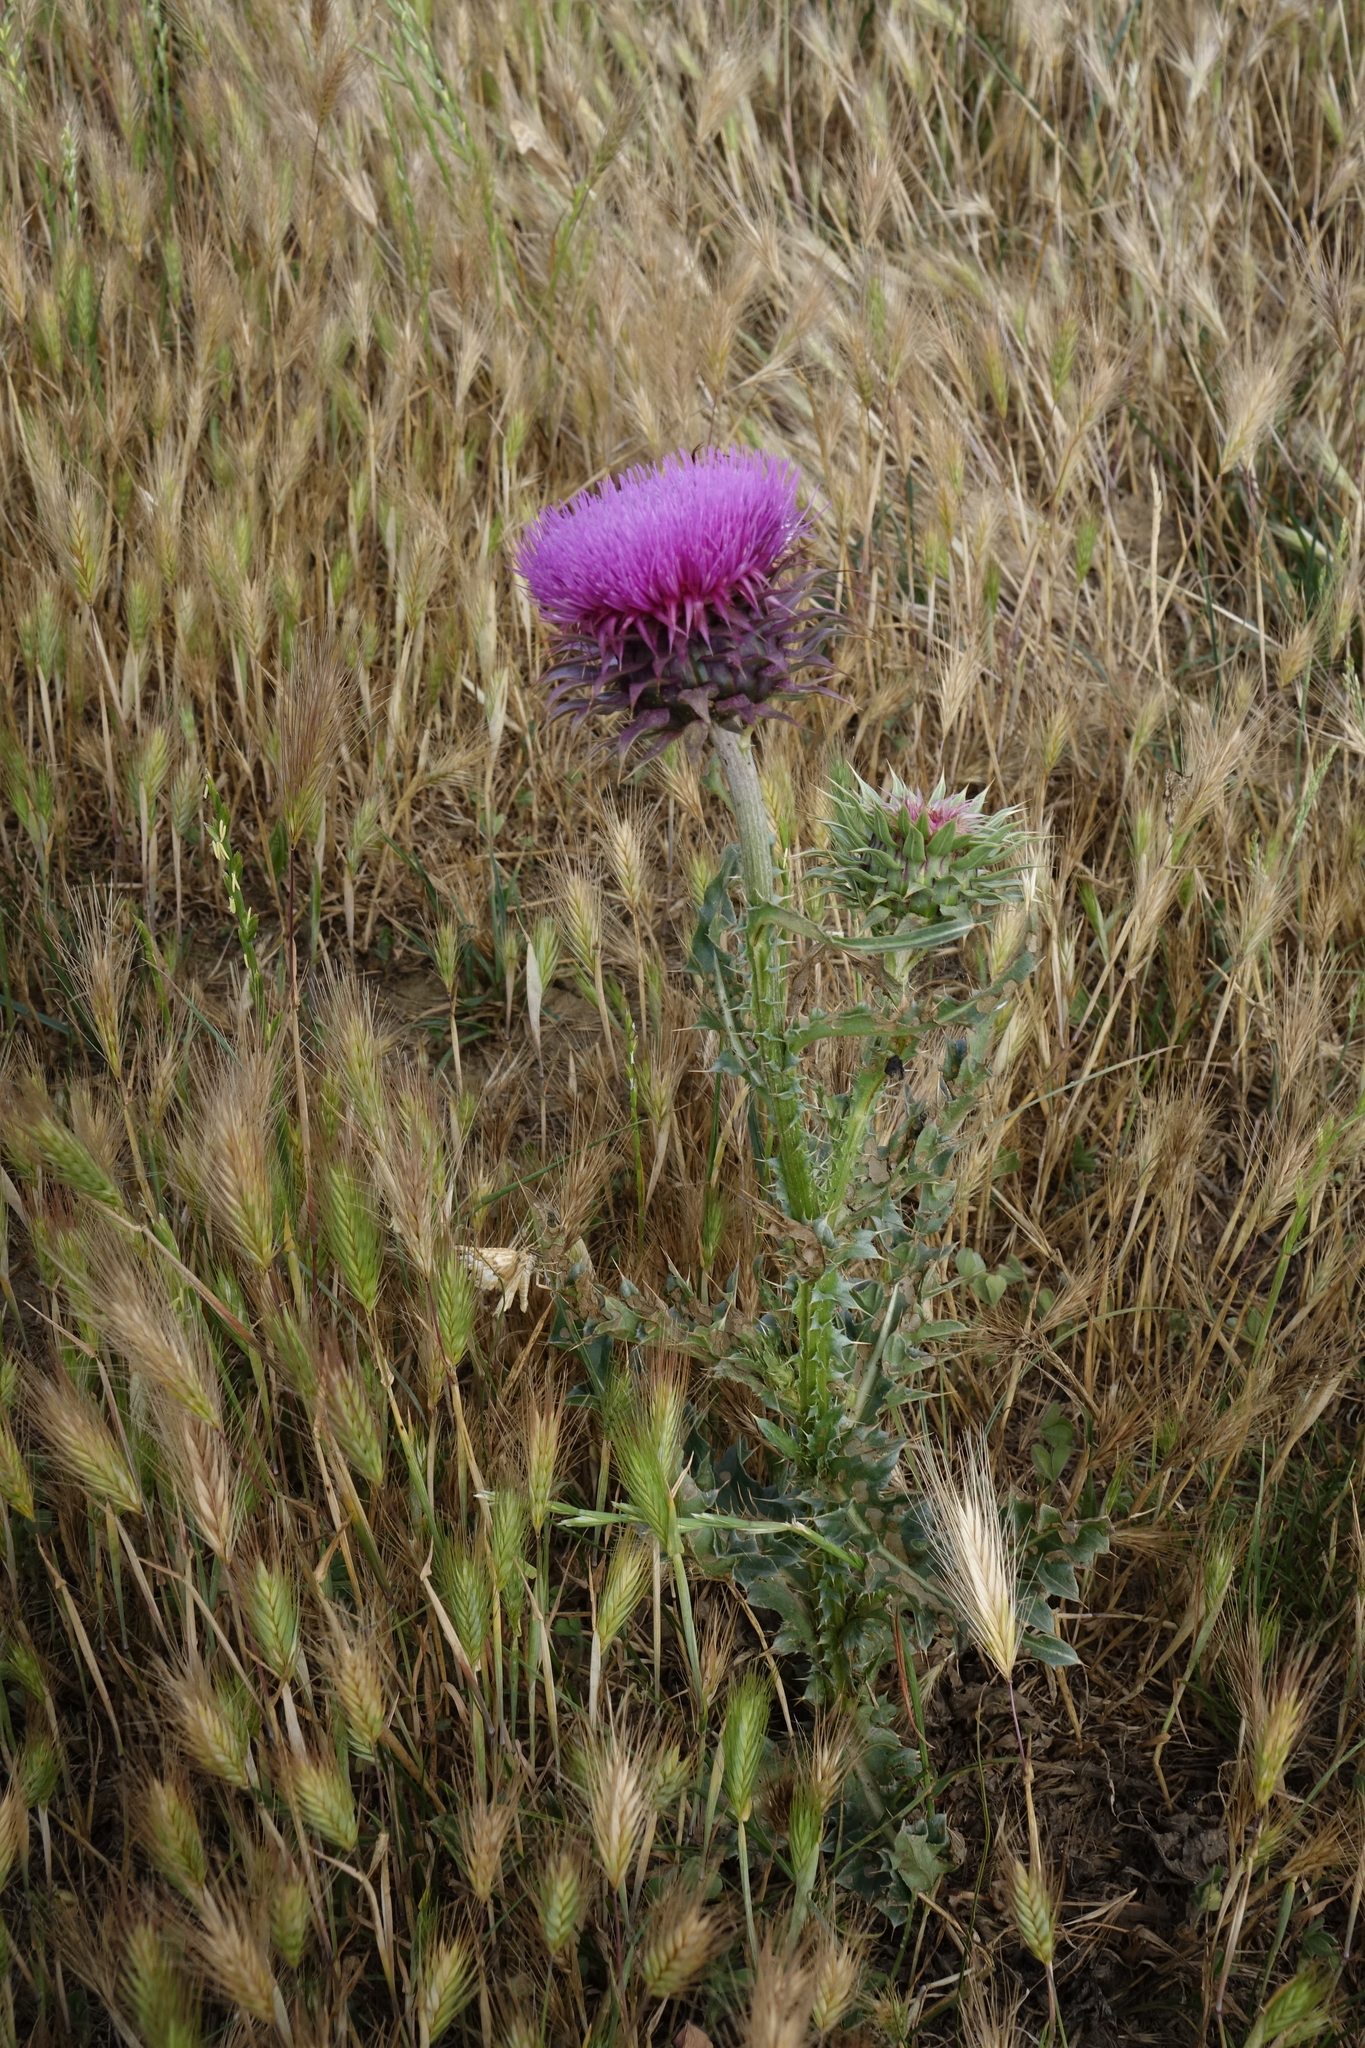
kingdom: Plantae
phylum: Tracheophyta
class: Liliopsida
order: Poales
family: Poaceae
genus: Hordeum
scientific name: Hordeum murinum
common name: Wall barley
